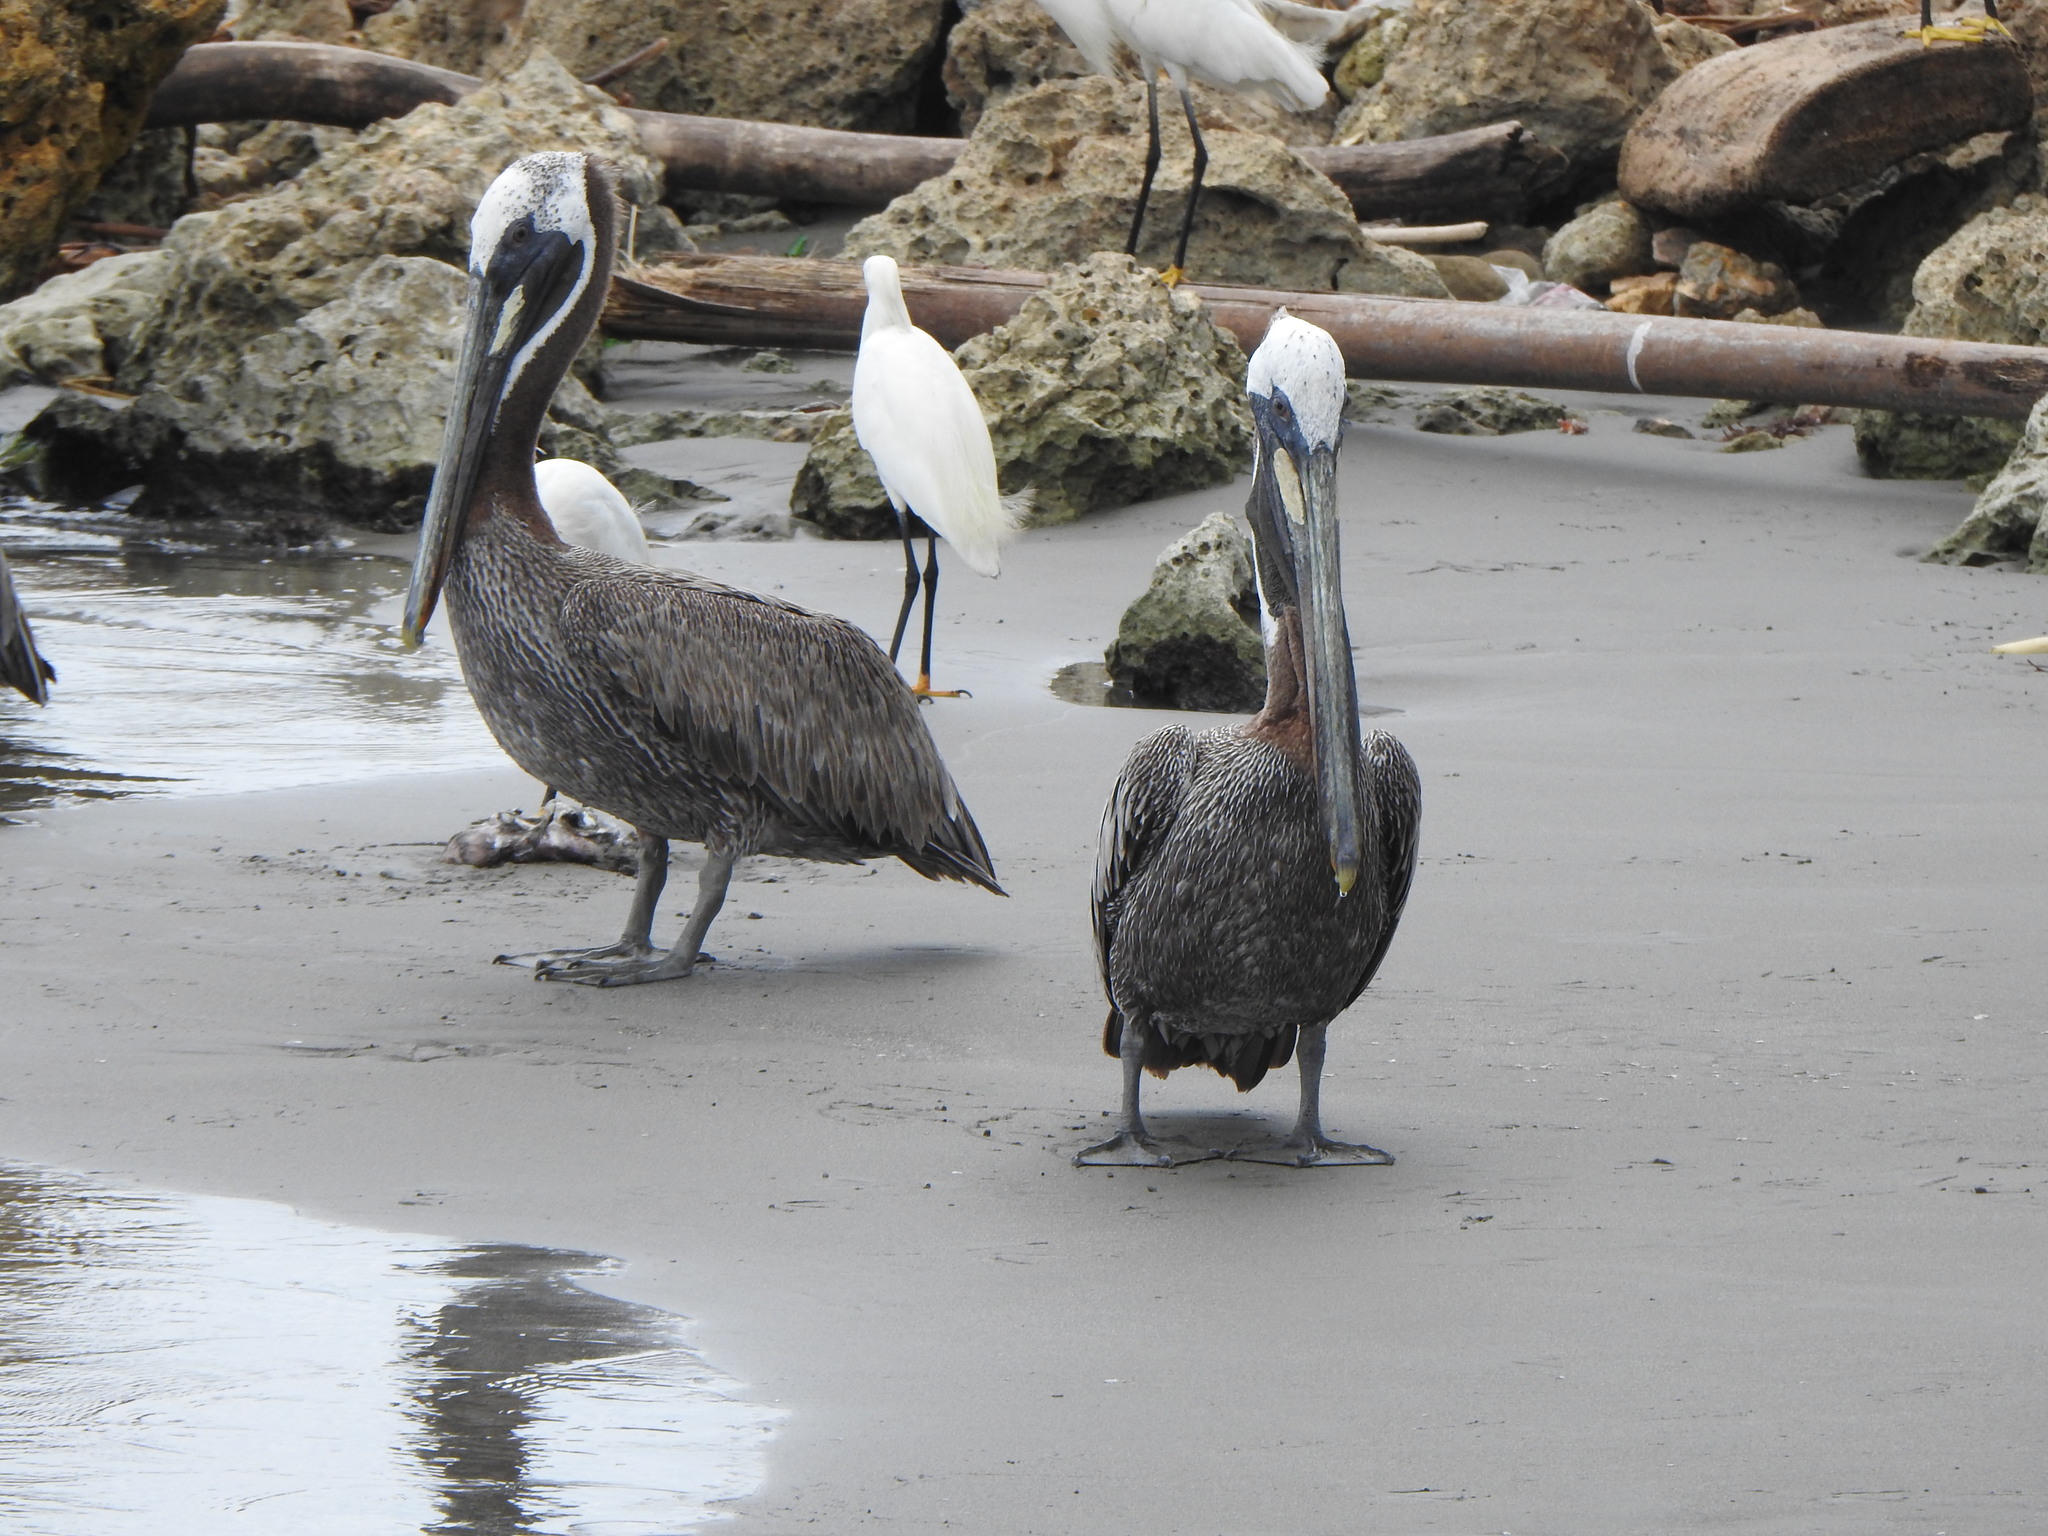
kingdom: Animalia
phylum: Chordata
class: Aves
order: Pelecaniformes
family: Pelecanidae
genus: Pelecanus
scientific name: Pelecanus occidentalis
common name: Brown pelican
